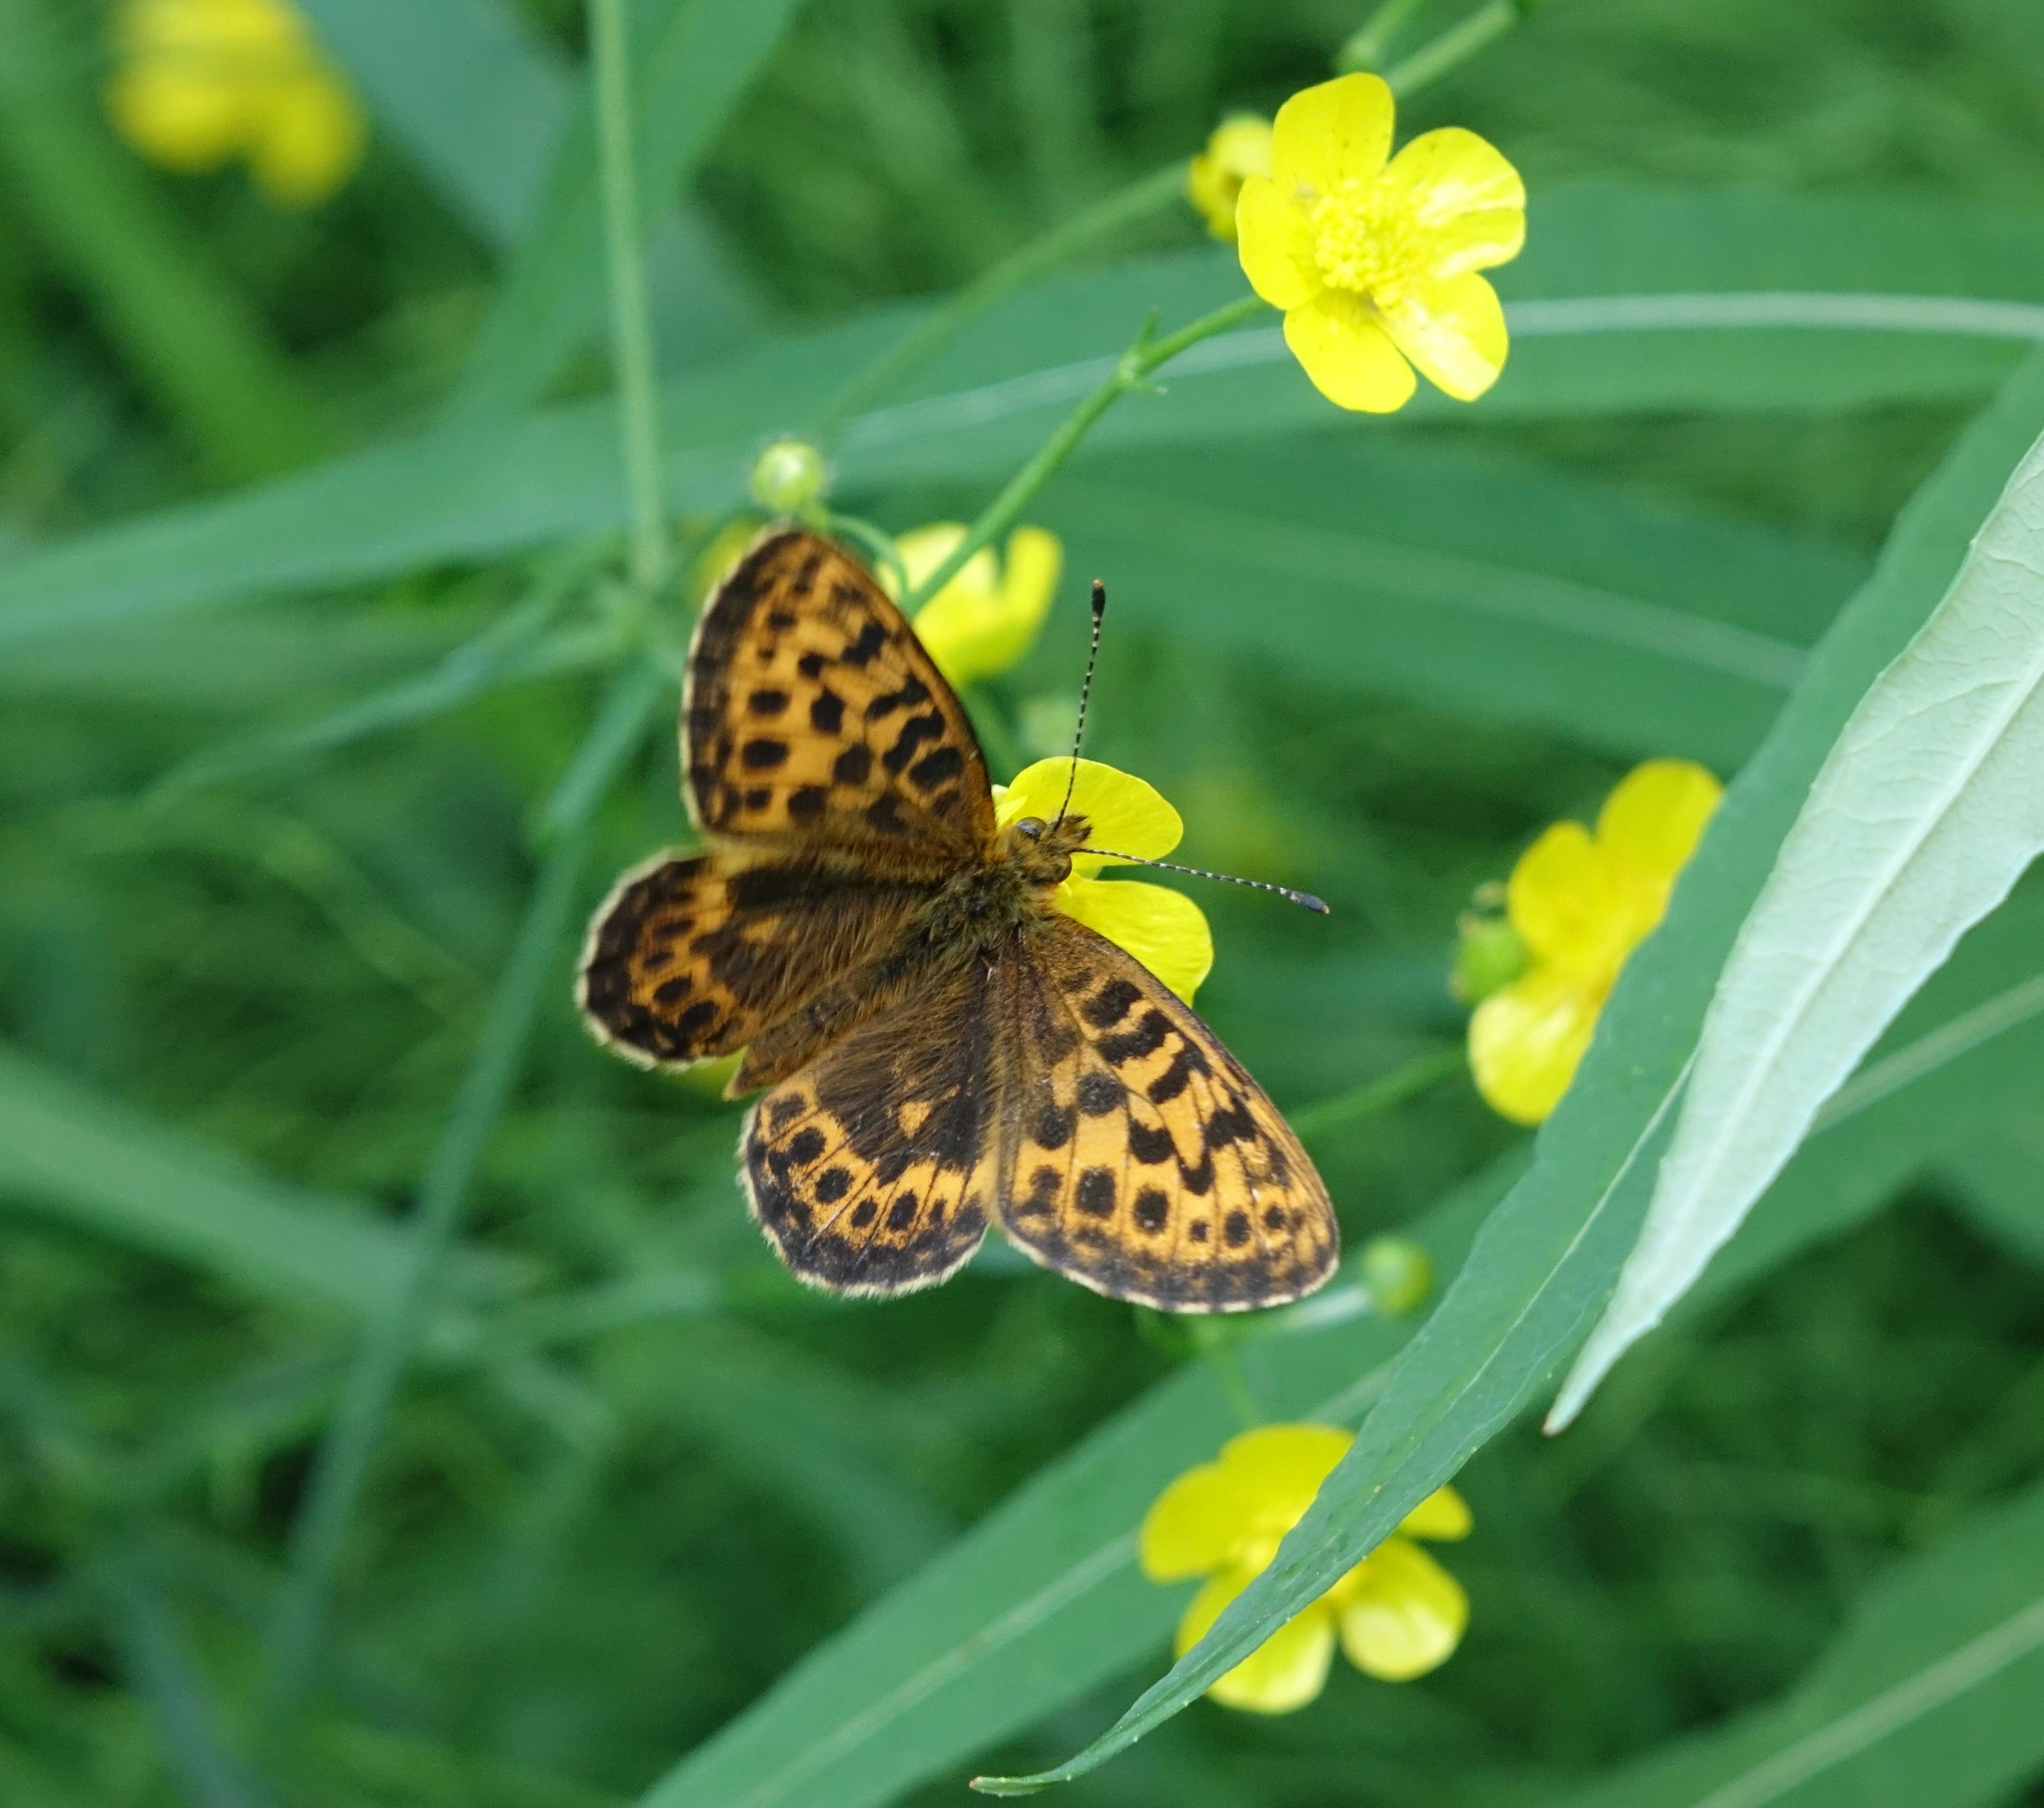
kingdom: Animalia
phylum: Arthropoda
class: Insecta
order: Lepidoptera
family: Nymphalidae
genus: Boloria
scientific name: Boloria thore
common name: Thor's fritillary
